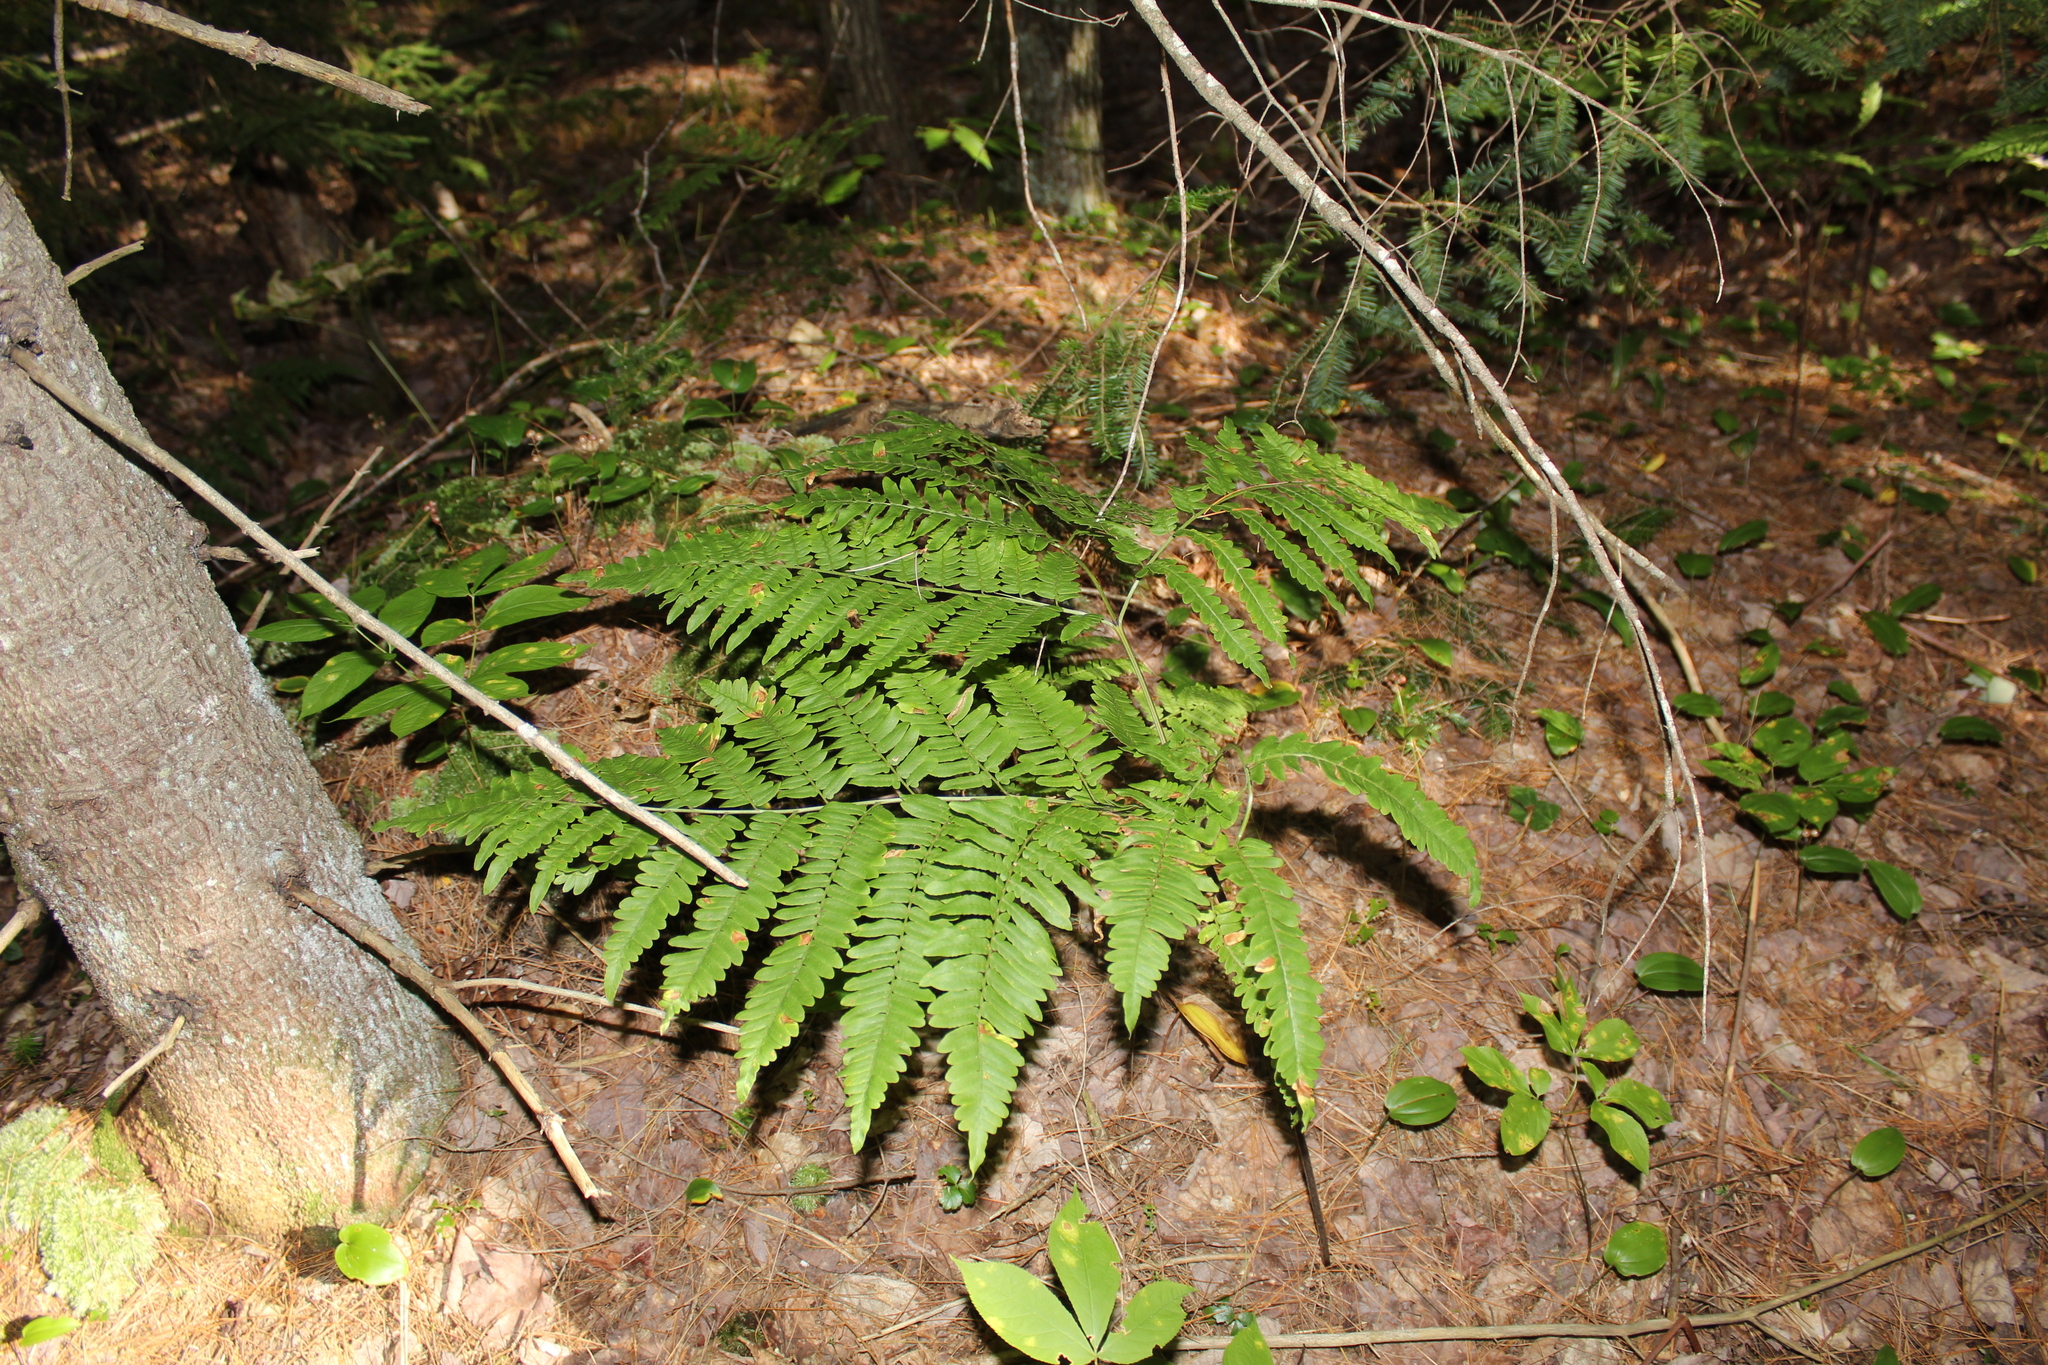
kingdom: Plantae
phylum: Tracheophyta
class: Polypodiopsida
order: Polypodiales
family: Dennstaedtiaceae
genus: Pteridium
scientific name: Pteridium aquilinum
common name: Bracken
